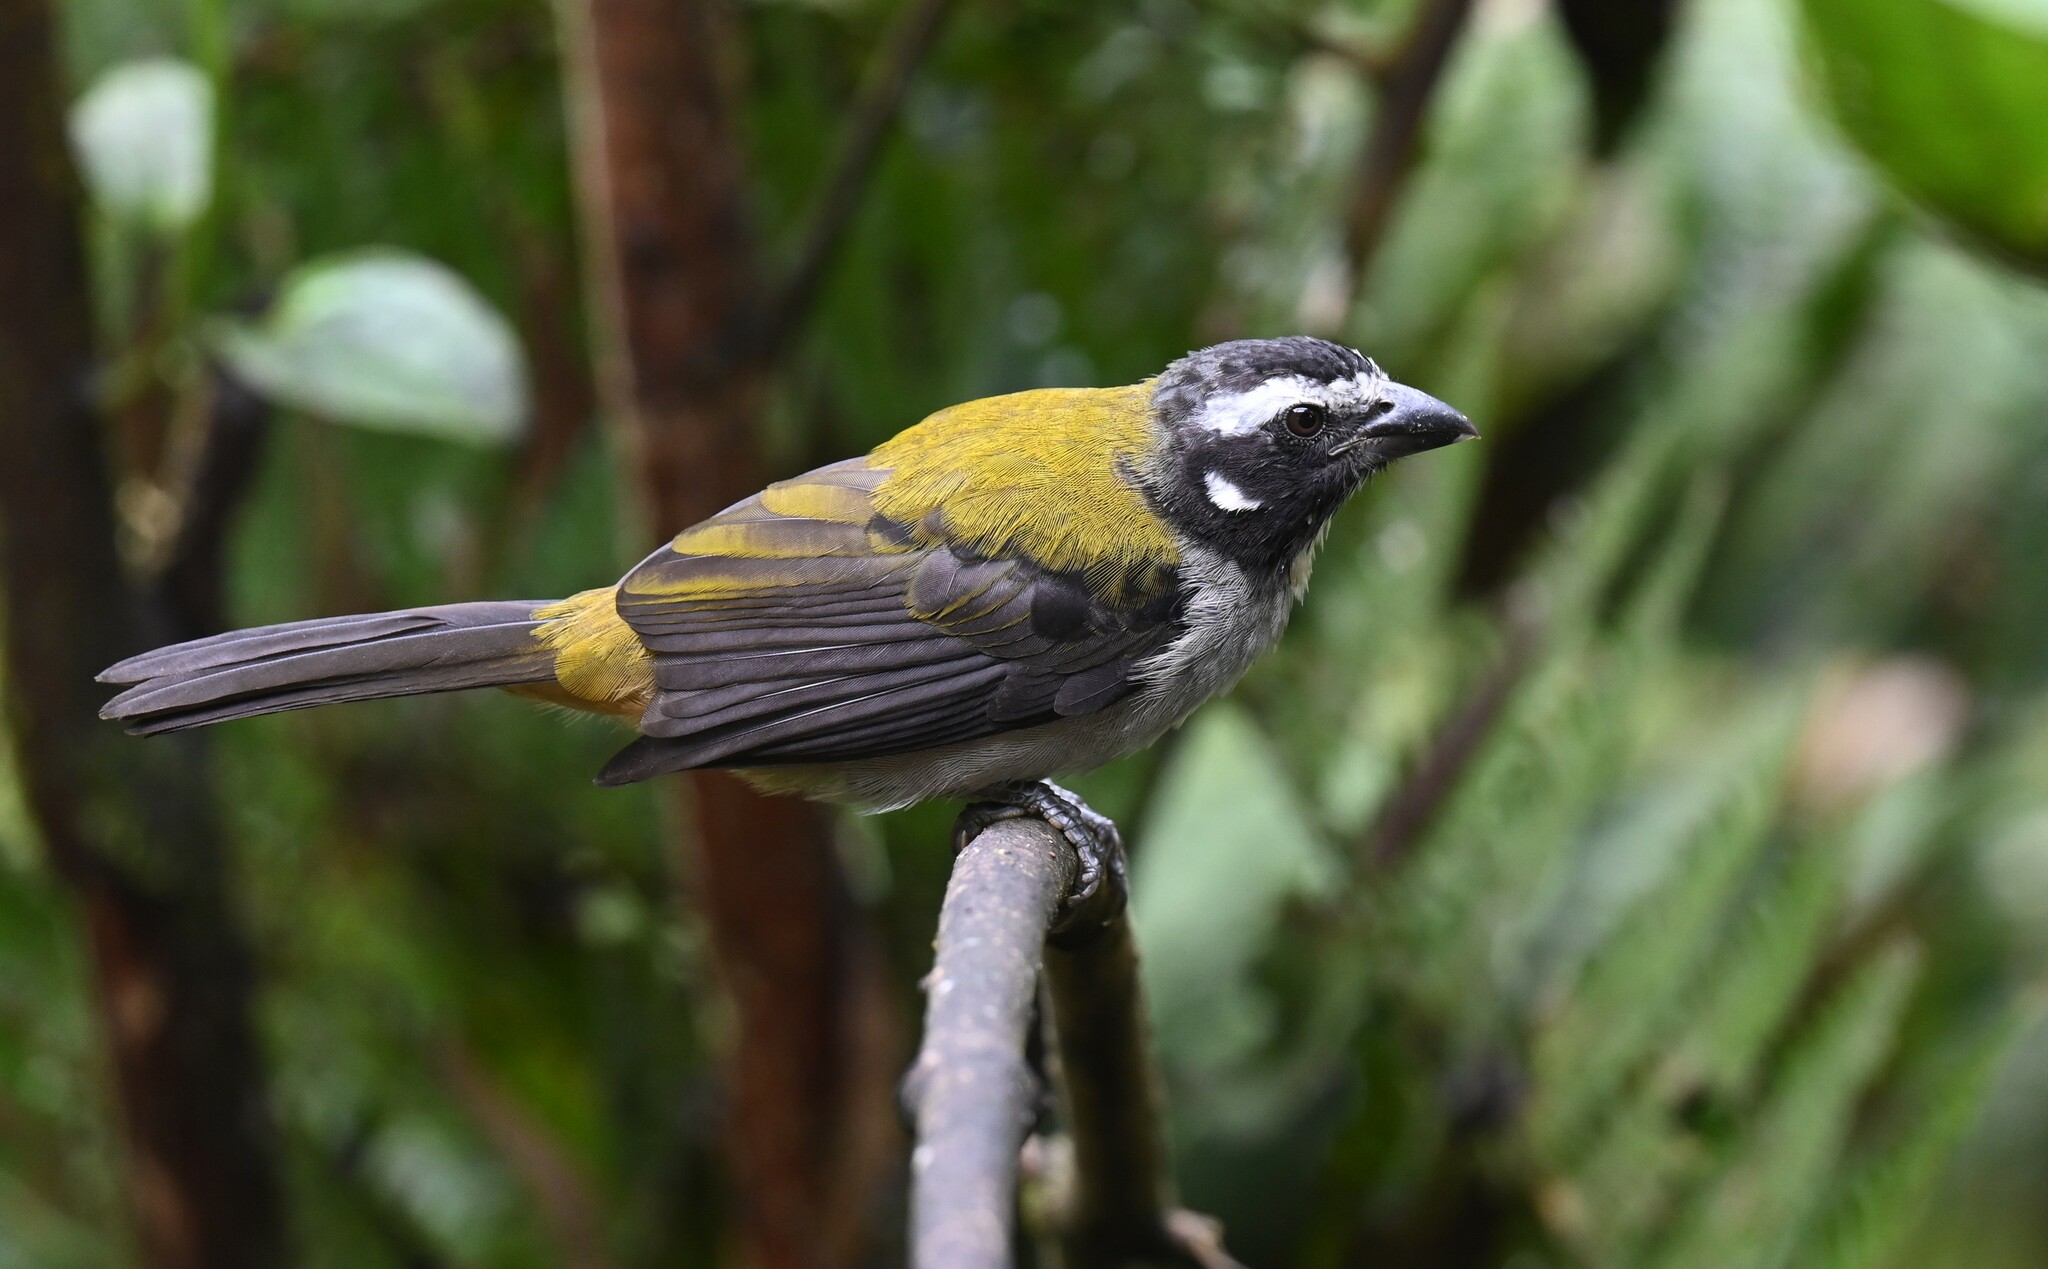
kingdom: Animalia
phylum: Chordata
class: Aves
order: Passeriformes
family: Thraupidae
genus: Saltator
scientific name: Saltator atripennis
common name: Black-winged saltator
